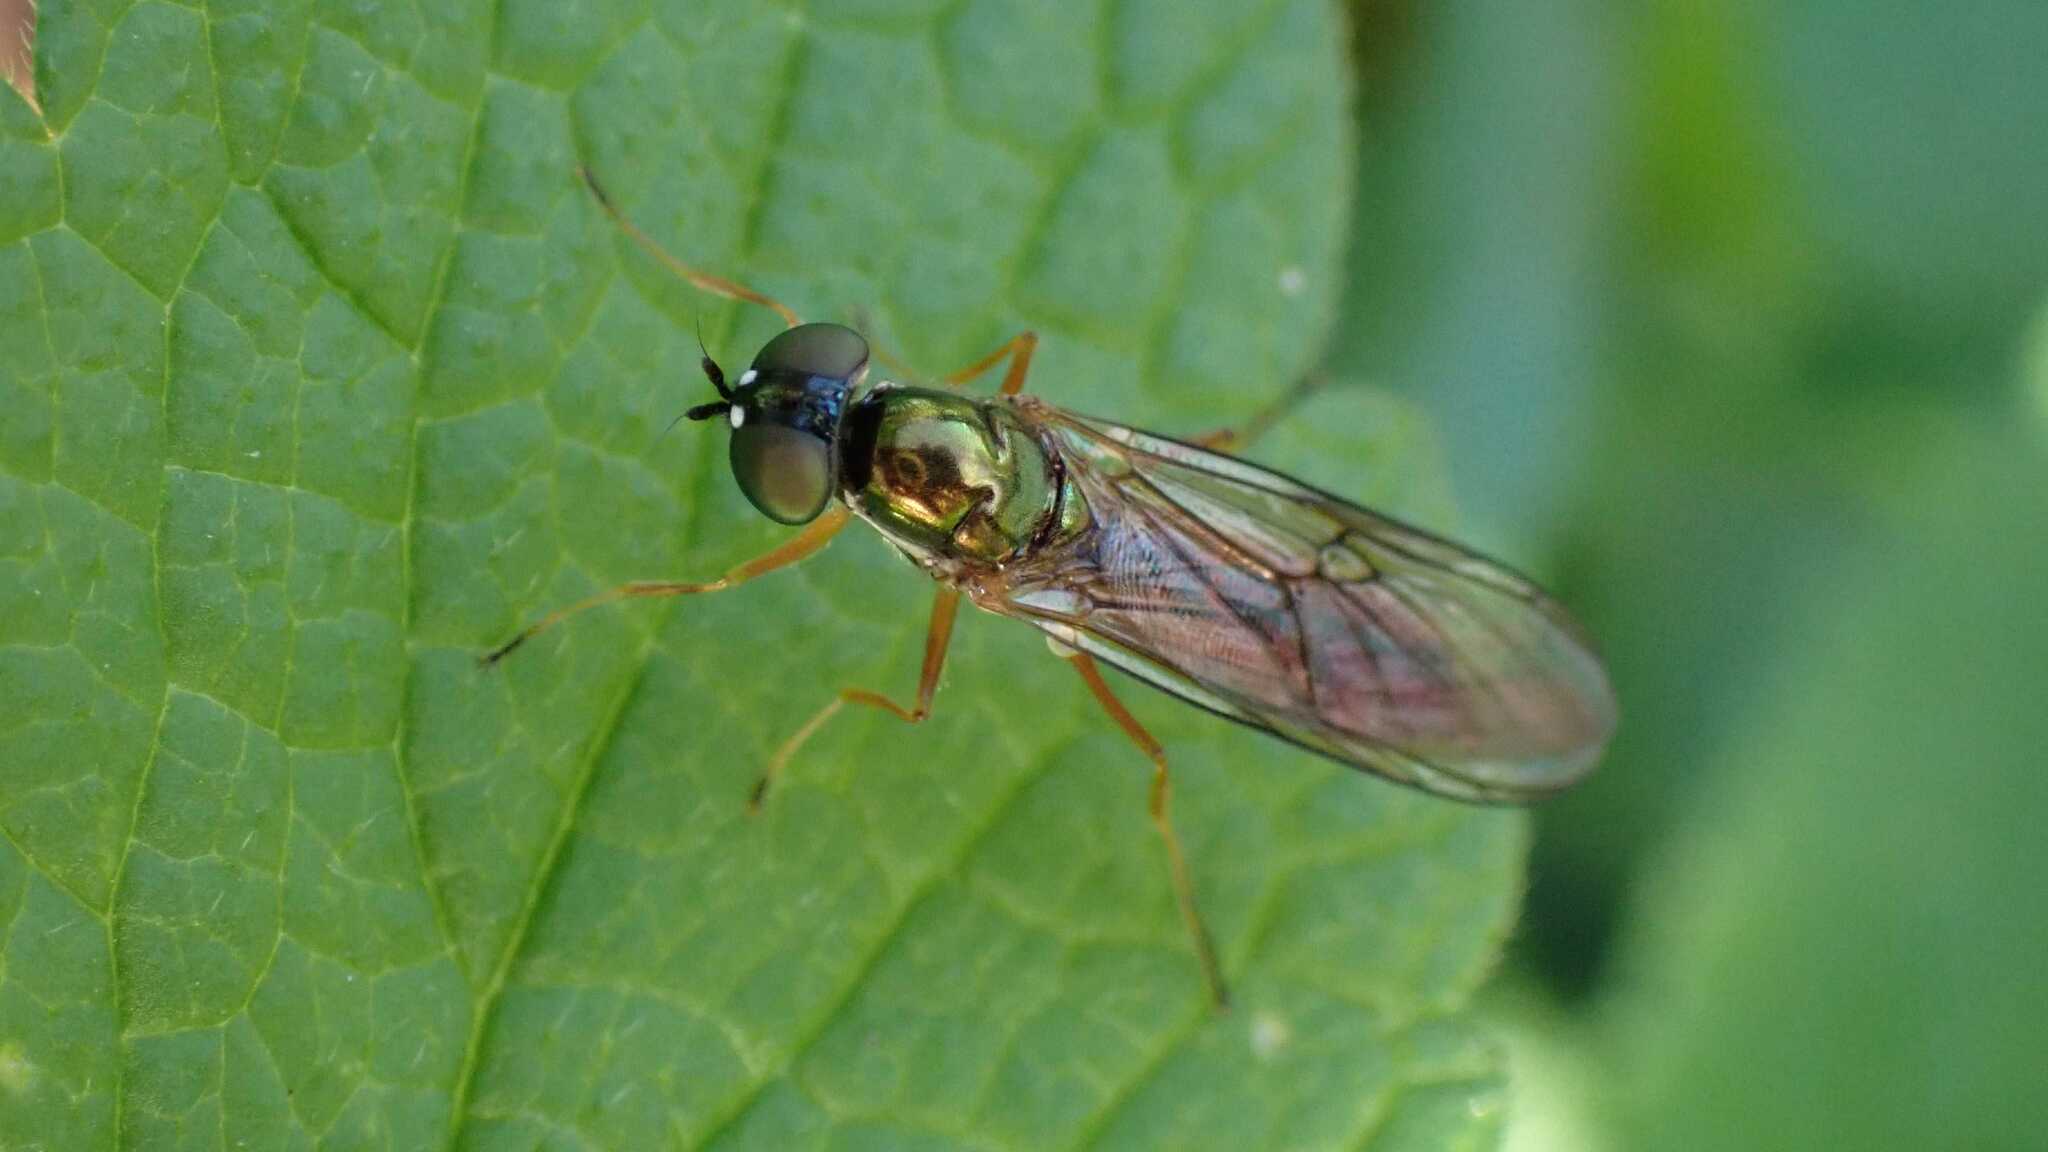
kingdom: Animalia
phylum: Arthropoda
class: Insecta
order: Diptera
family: Stratiomyidae
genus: Sargus
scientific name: Sargus bipunctatus
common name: Twin-spot centurion
